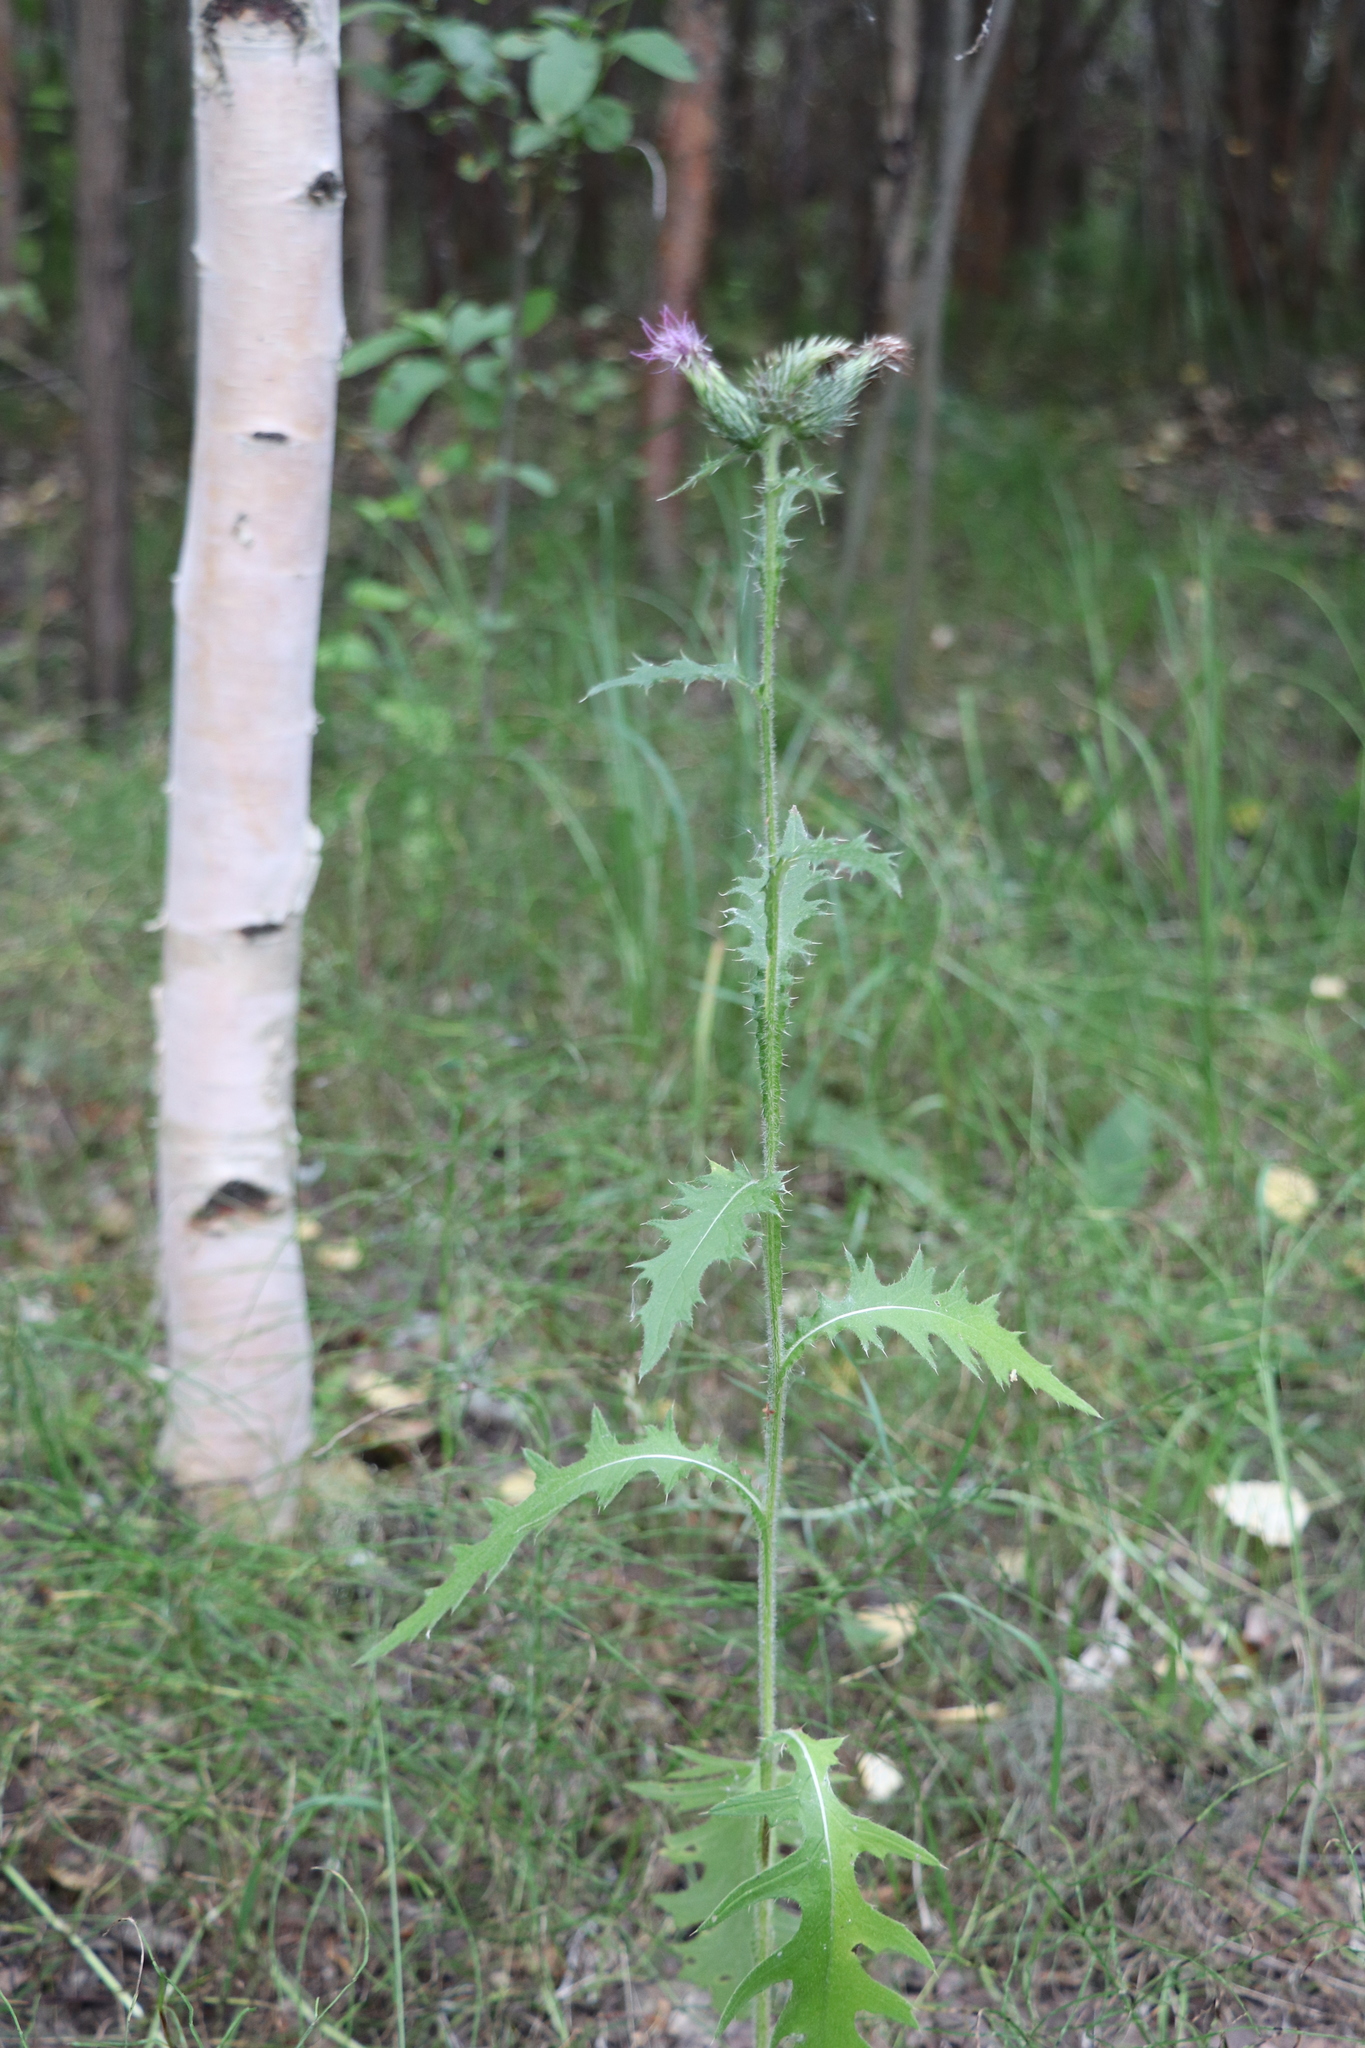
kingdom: Plantae
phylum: Tracheophyta
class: Magnoliopsida
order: Asterales
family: Asteraceae
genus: Cirsium
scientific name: Cirsium vulgare
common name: Bull thistle
